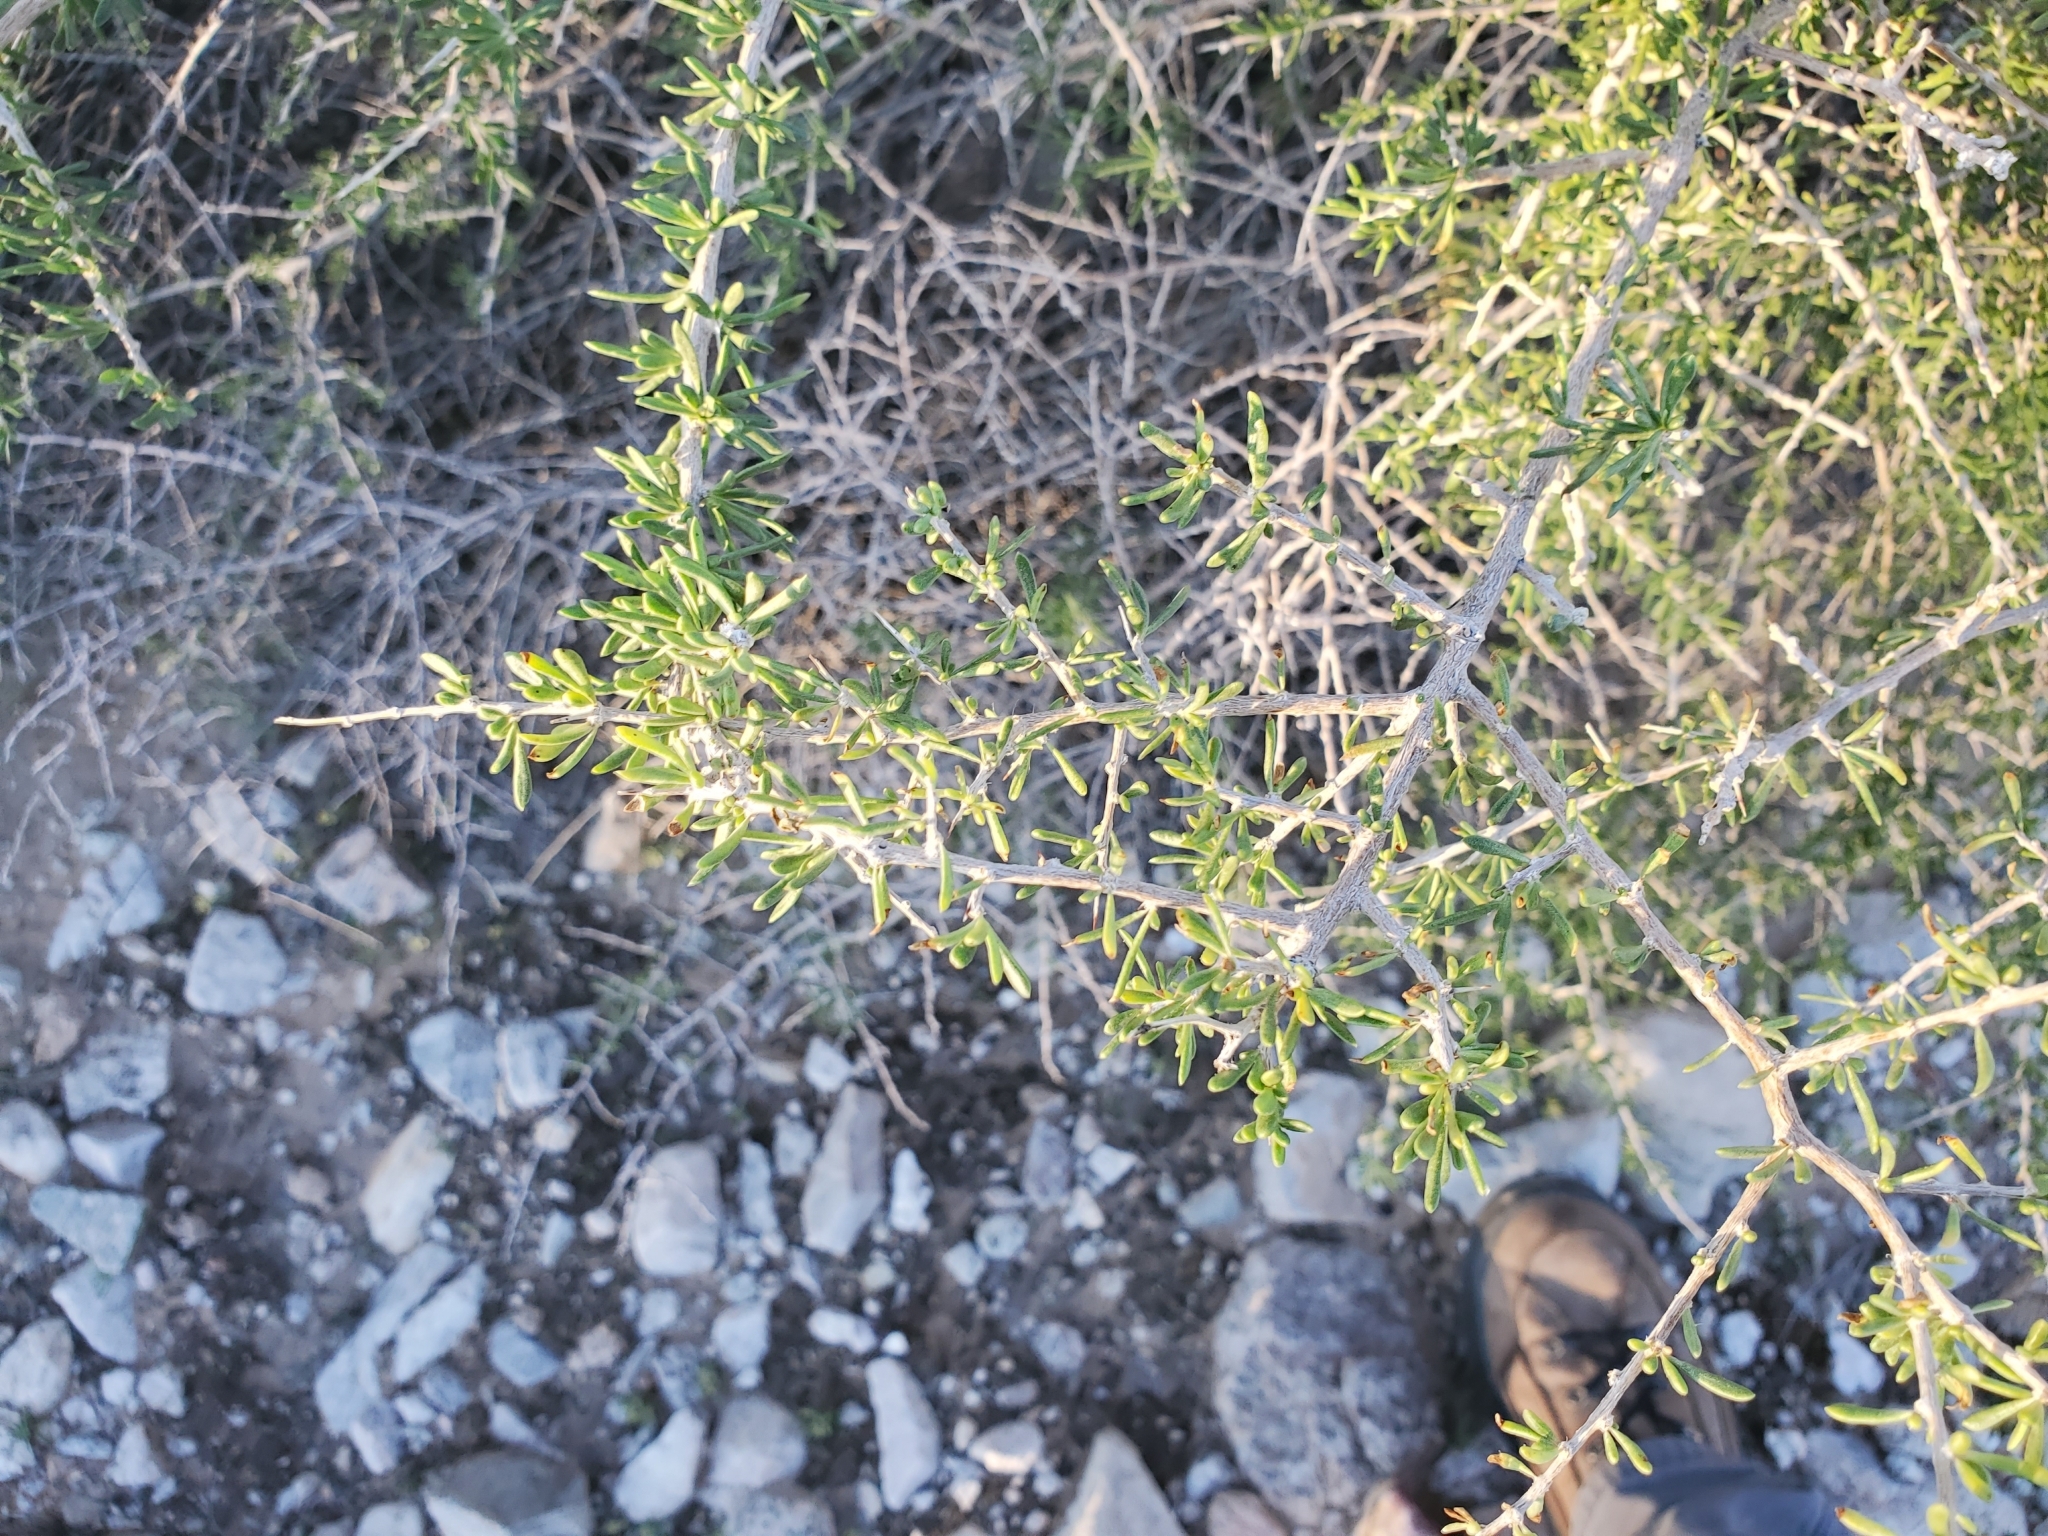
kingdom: Plantae
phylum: Tracheophyta
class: Magnoliopsida
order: Solanales
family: Solanaceae
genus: Lycium
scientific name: Lycium andersonii
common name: Water-jacket
